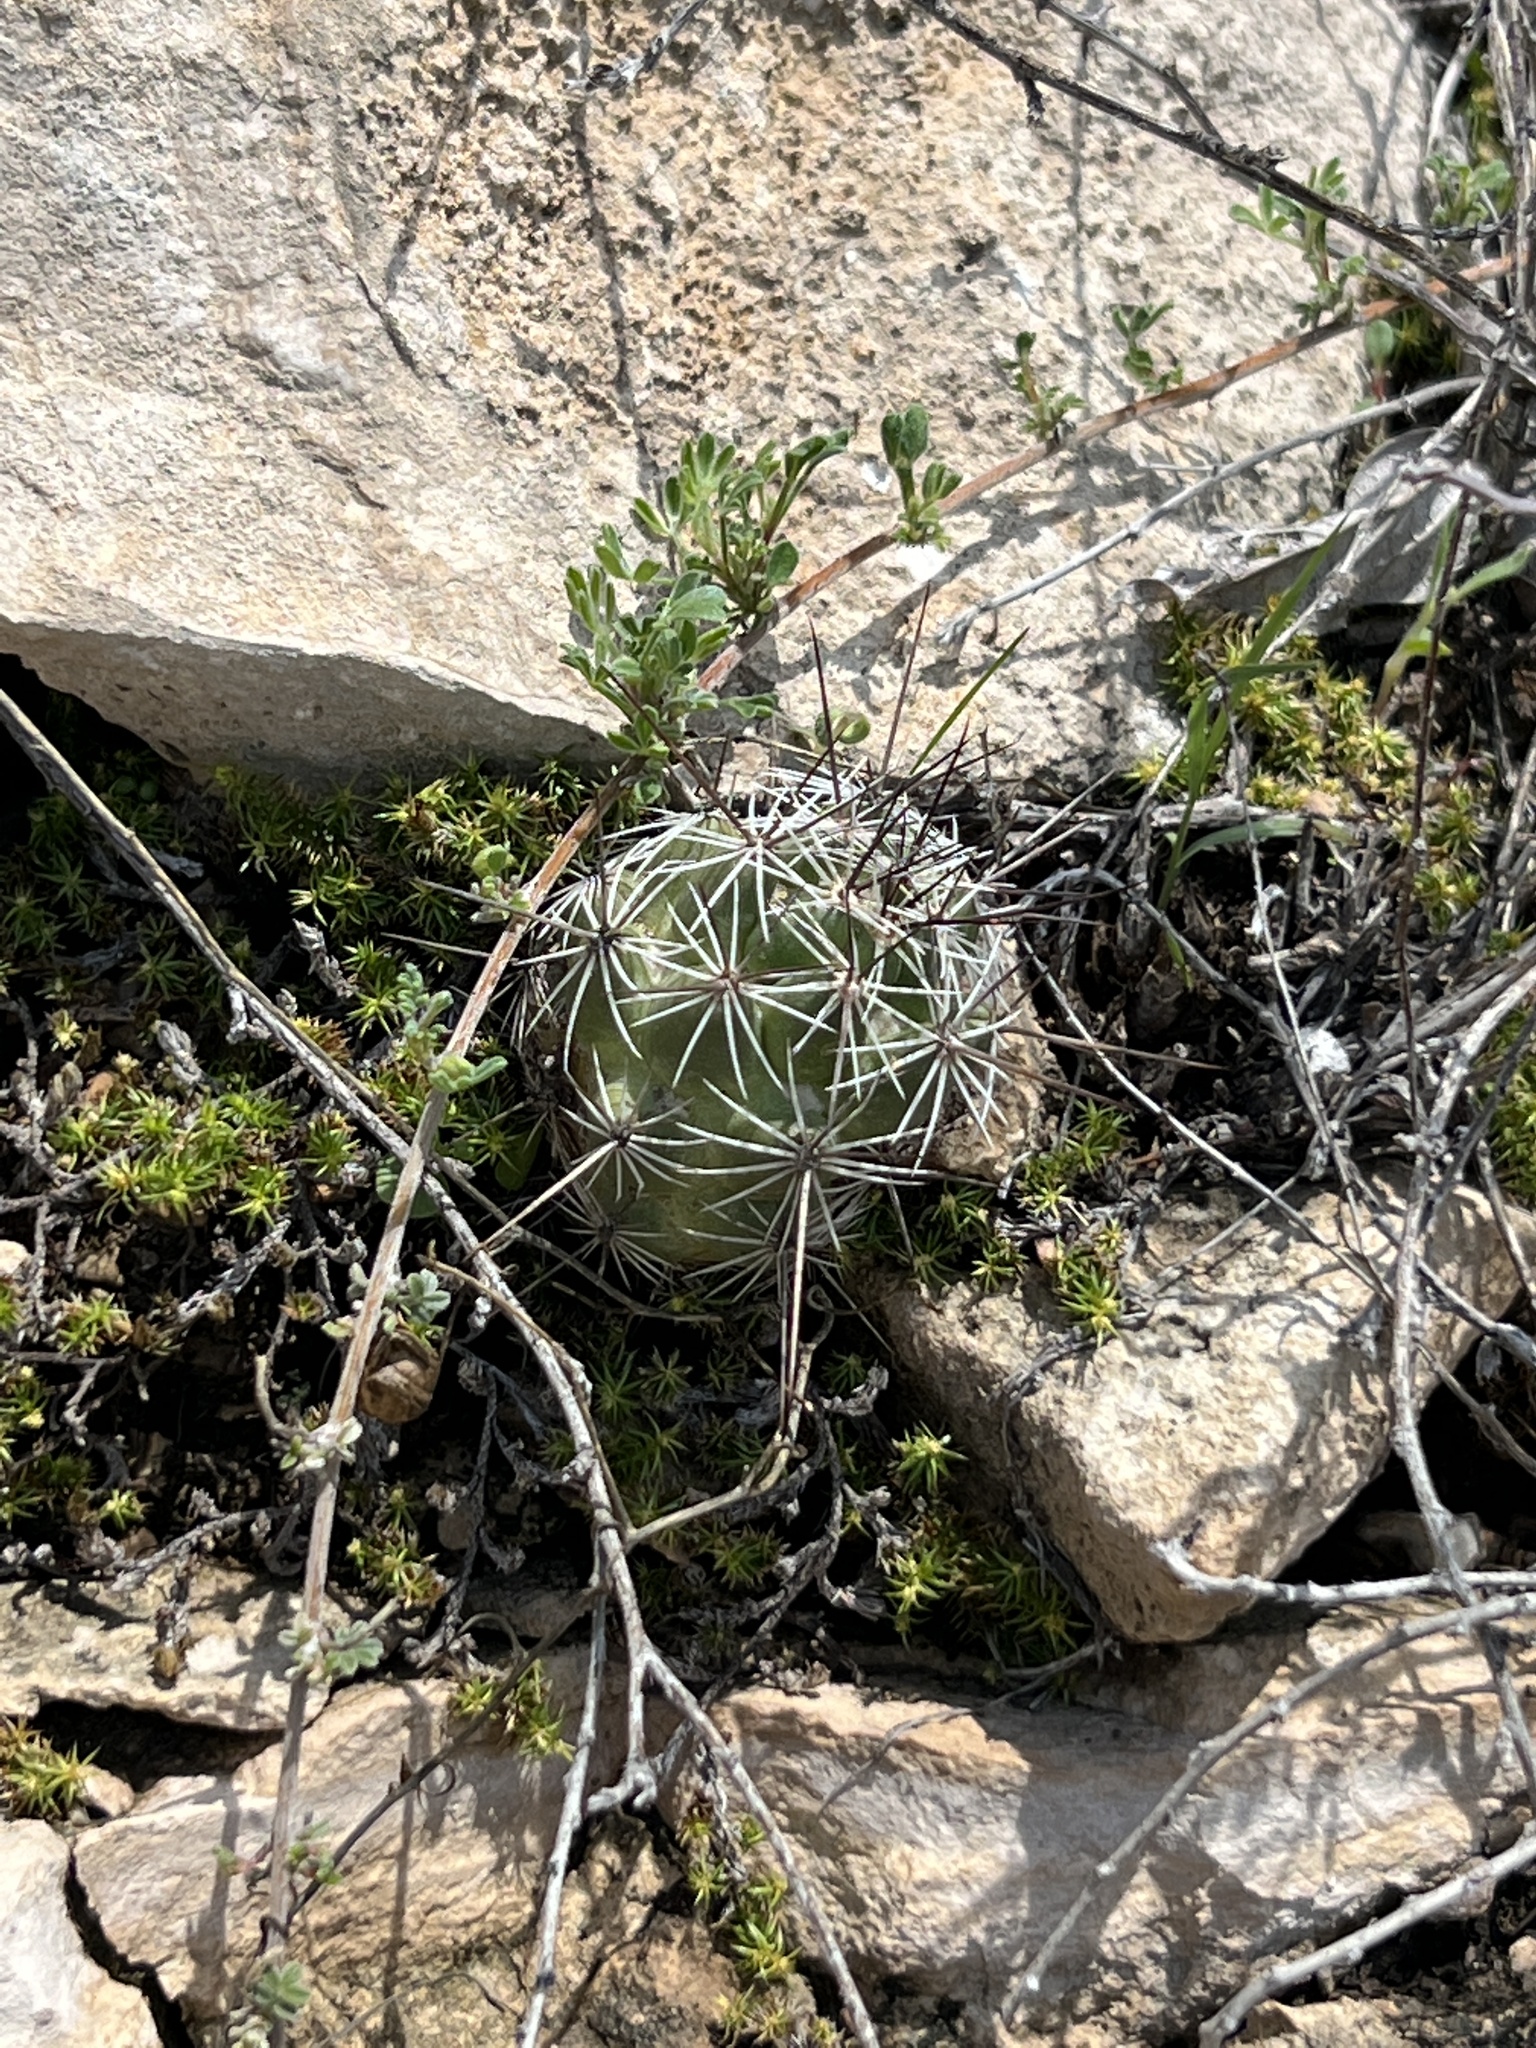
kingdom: Plantae
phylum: Tracheophyta
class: Magnoliopsida
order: Caryophyllales
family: Cactaceae
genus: Cochemiea
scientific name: Cochemiea conoidea
